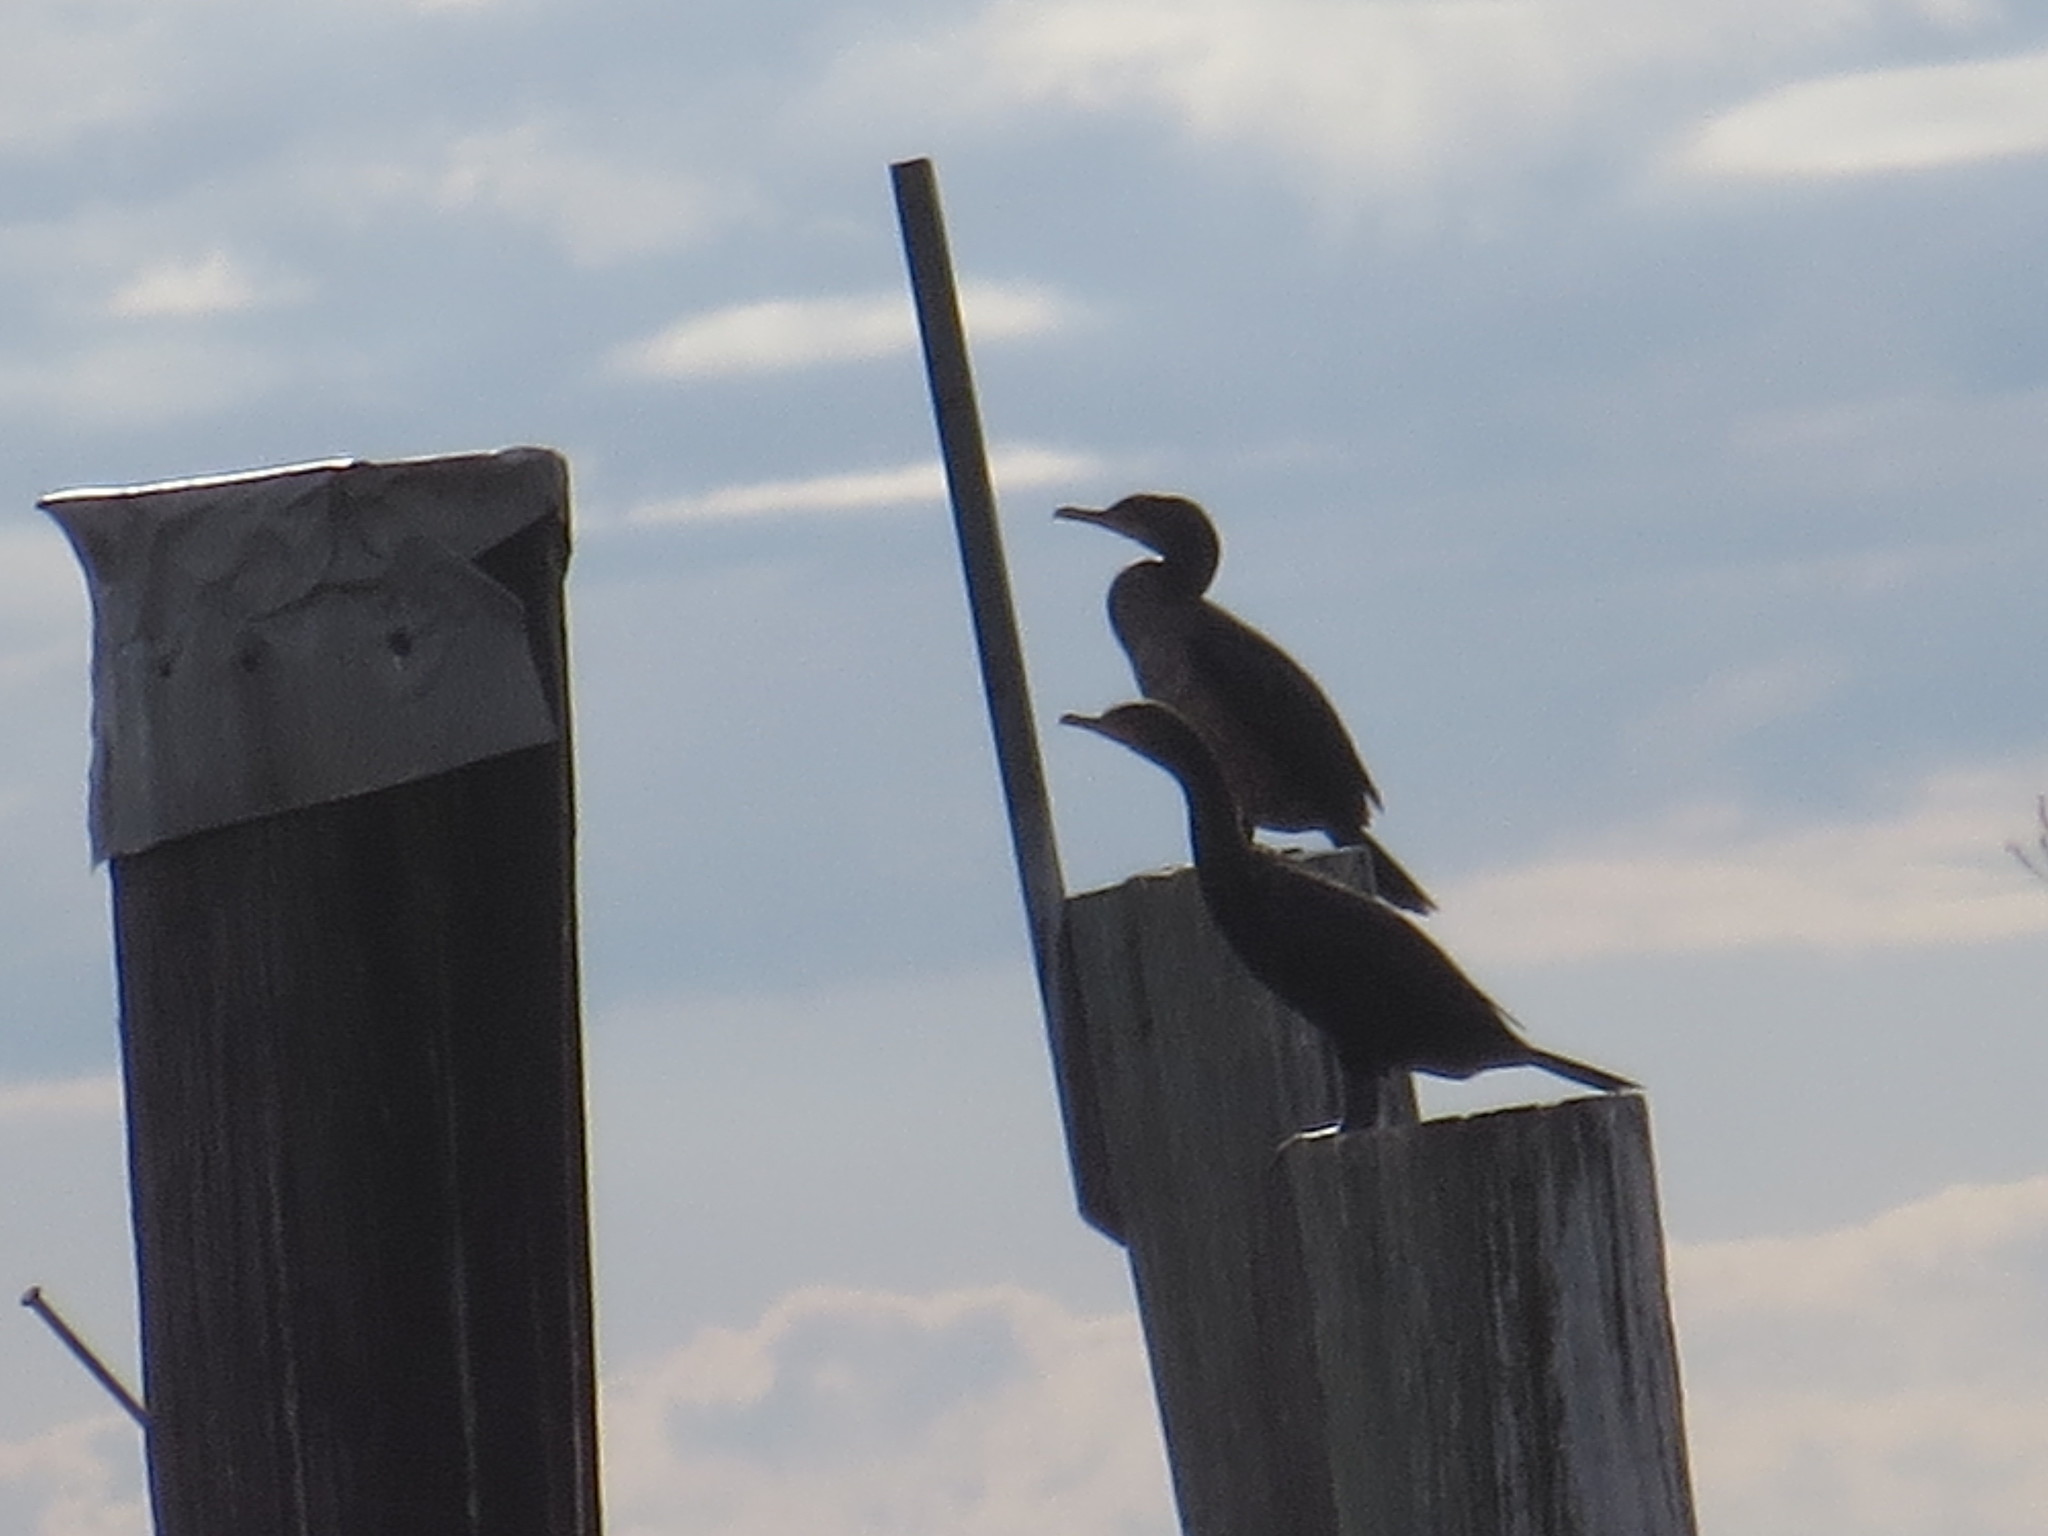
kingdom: Animalia
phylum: Chordata
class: Aves
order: Suliformes
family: Phalacrocoracidae
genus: Phalacrocorax
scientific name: Phalacrocorax auritus
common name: Double-crested cormorant
